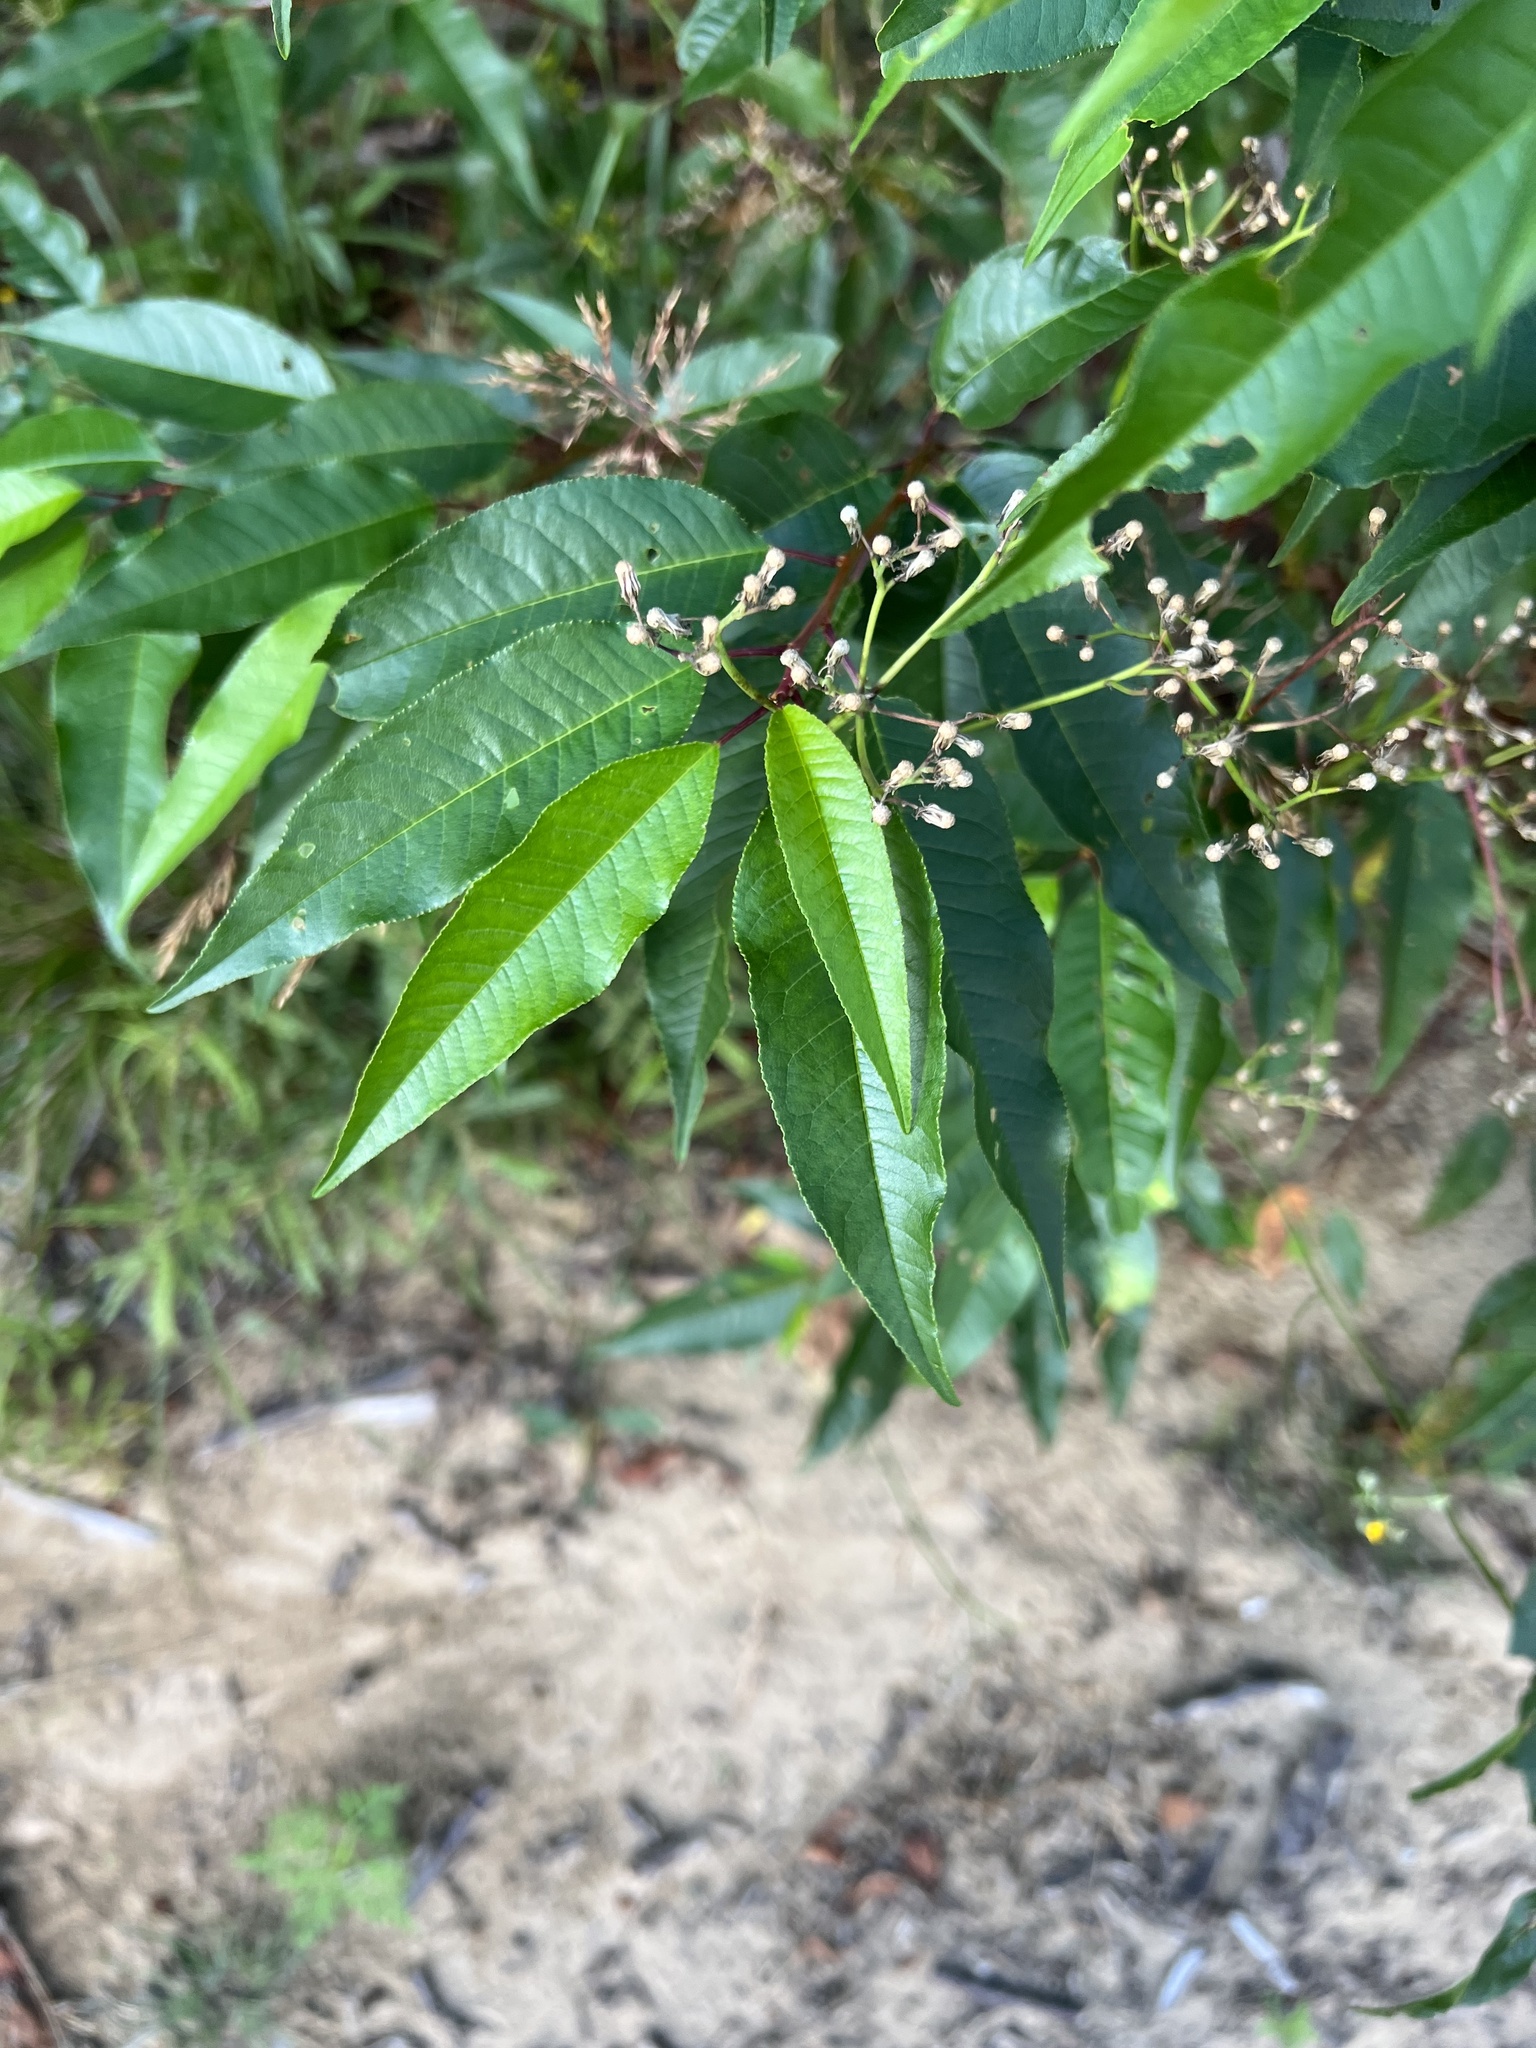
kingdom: Plantae
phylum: Tracheophyta
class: Magnoliopsida
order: Rosales
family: Rosaceae
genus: Prunus
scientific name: Prunus pensylvanica
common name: Pin cherry
